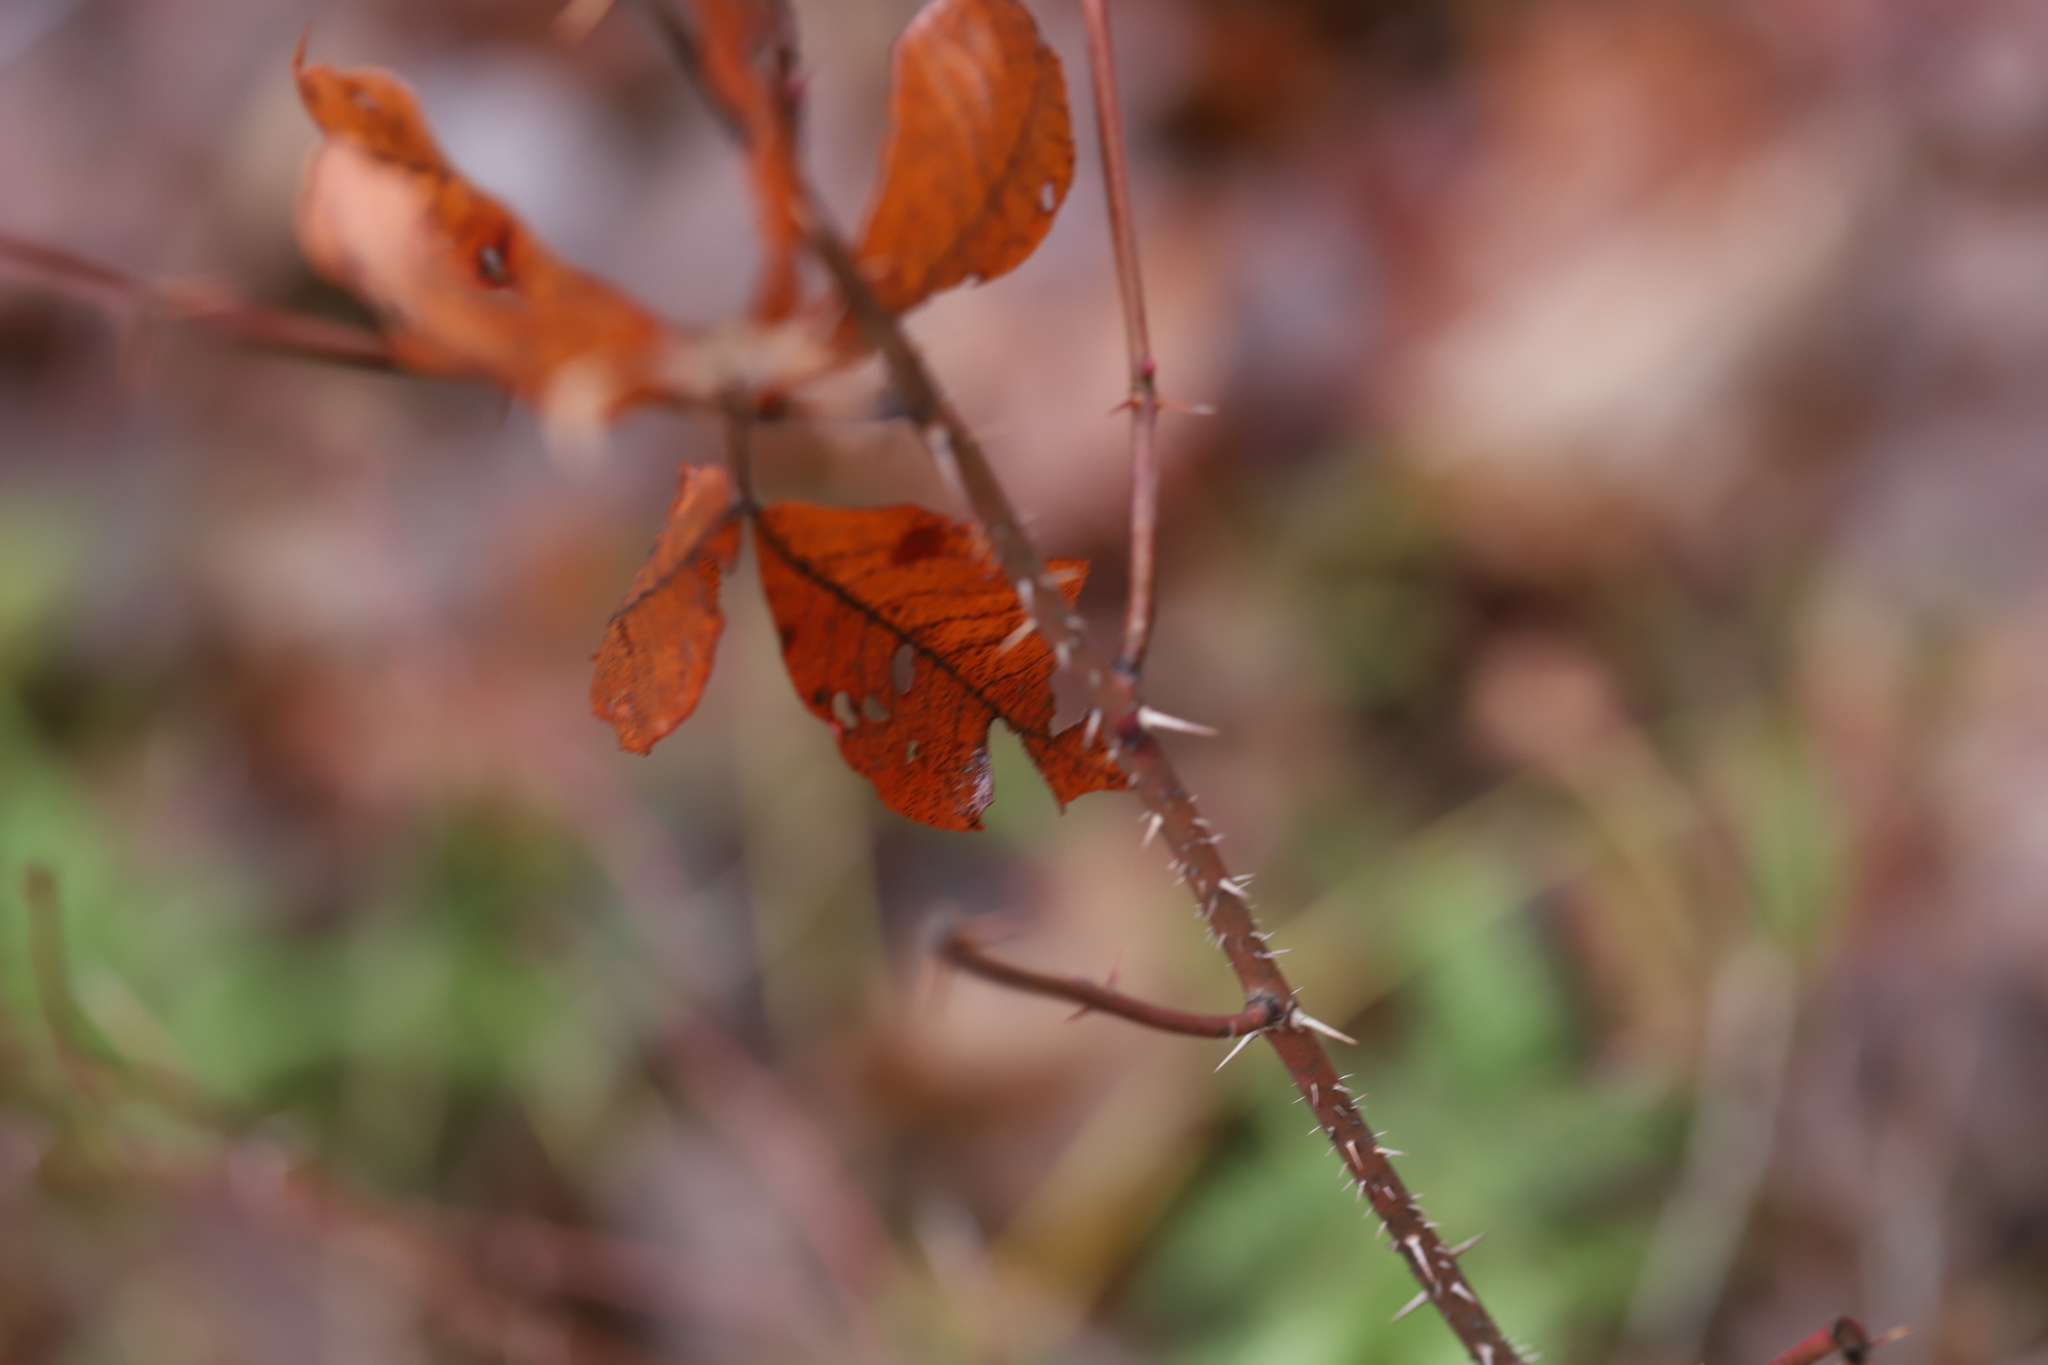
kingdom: Plantae
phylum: Tracheophyta
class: Magnoliopsida
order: Rosales
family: Rosaceae
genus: Rosa
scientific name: Rosa palustris
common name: Swamp rose
